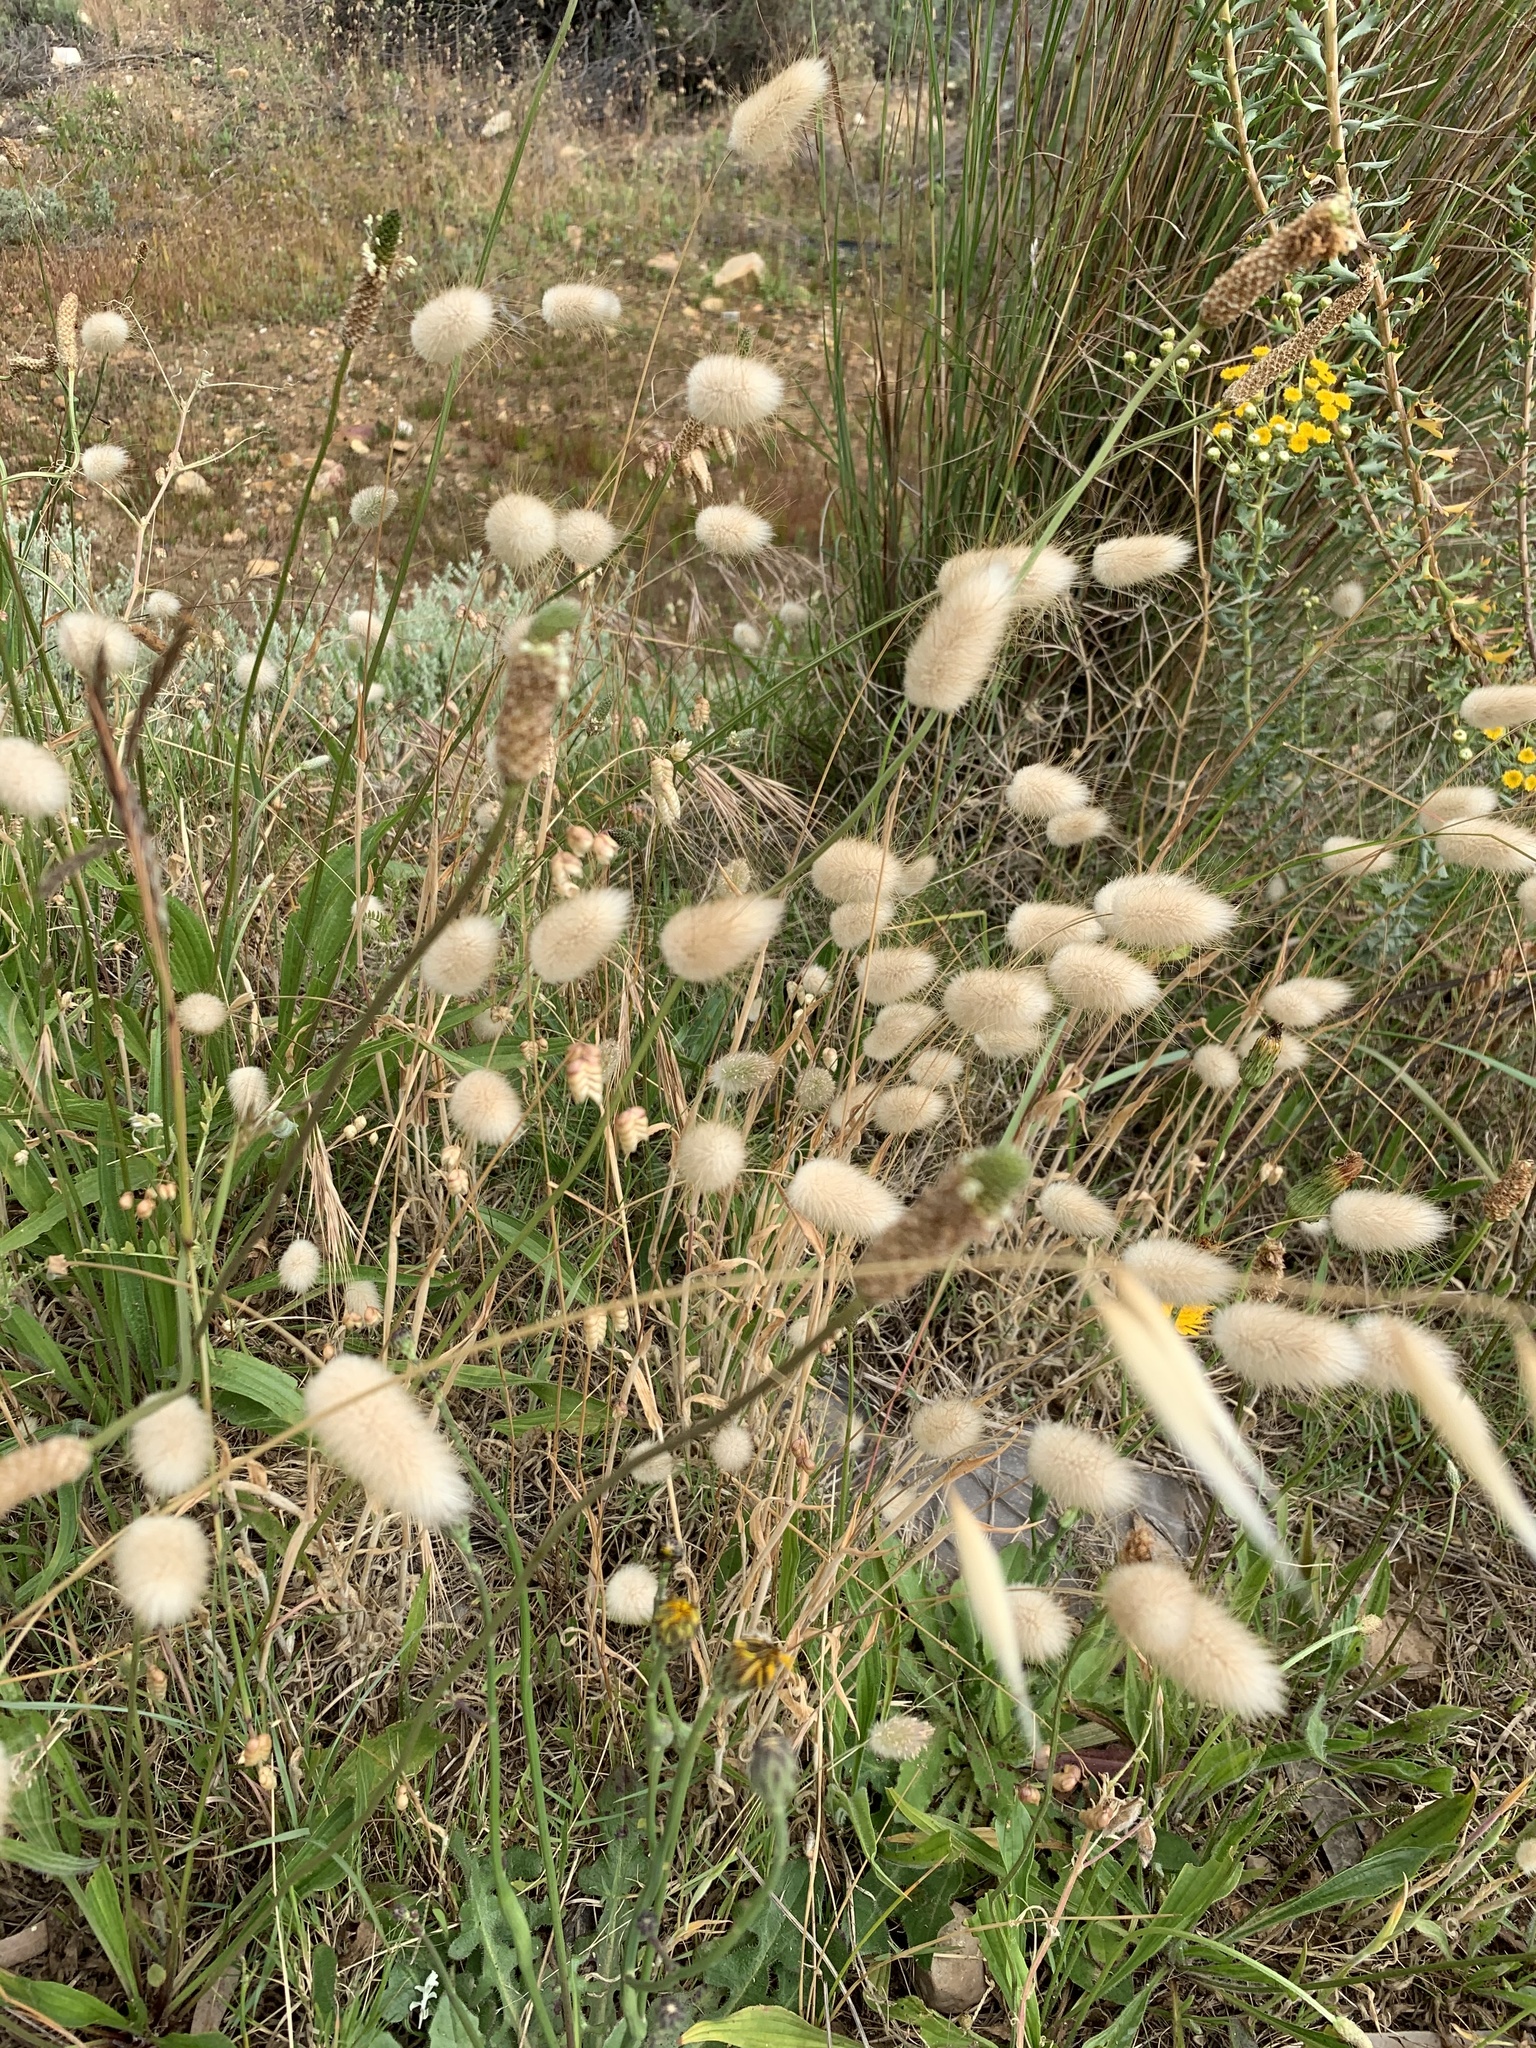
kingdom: Plantae
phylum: Tracheophyta
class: Liliopsida
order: Poales
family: Poaceae
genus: Lagurus
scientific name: Lagurus ovatus
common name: Hare's-tail
